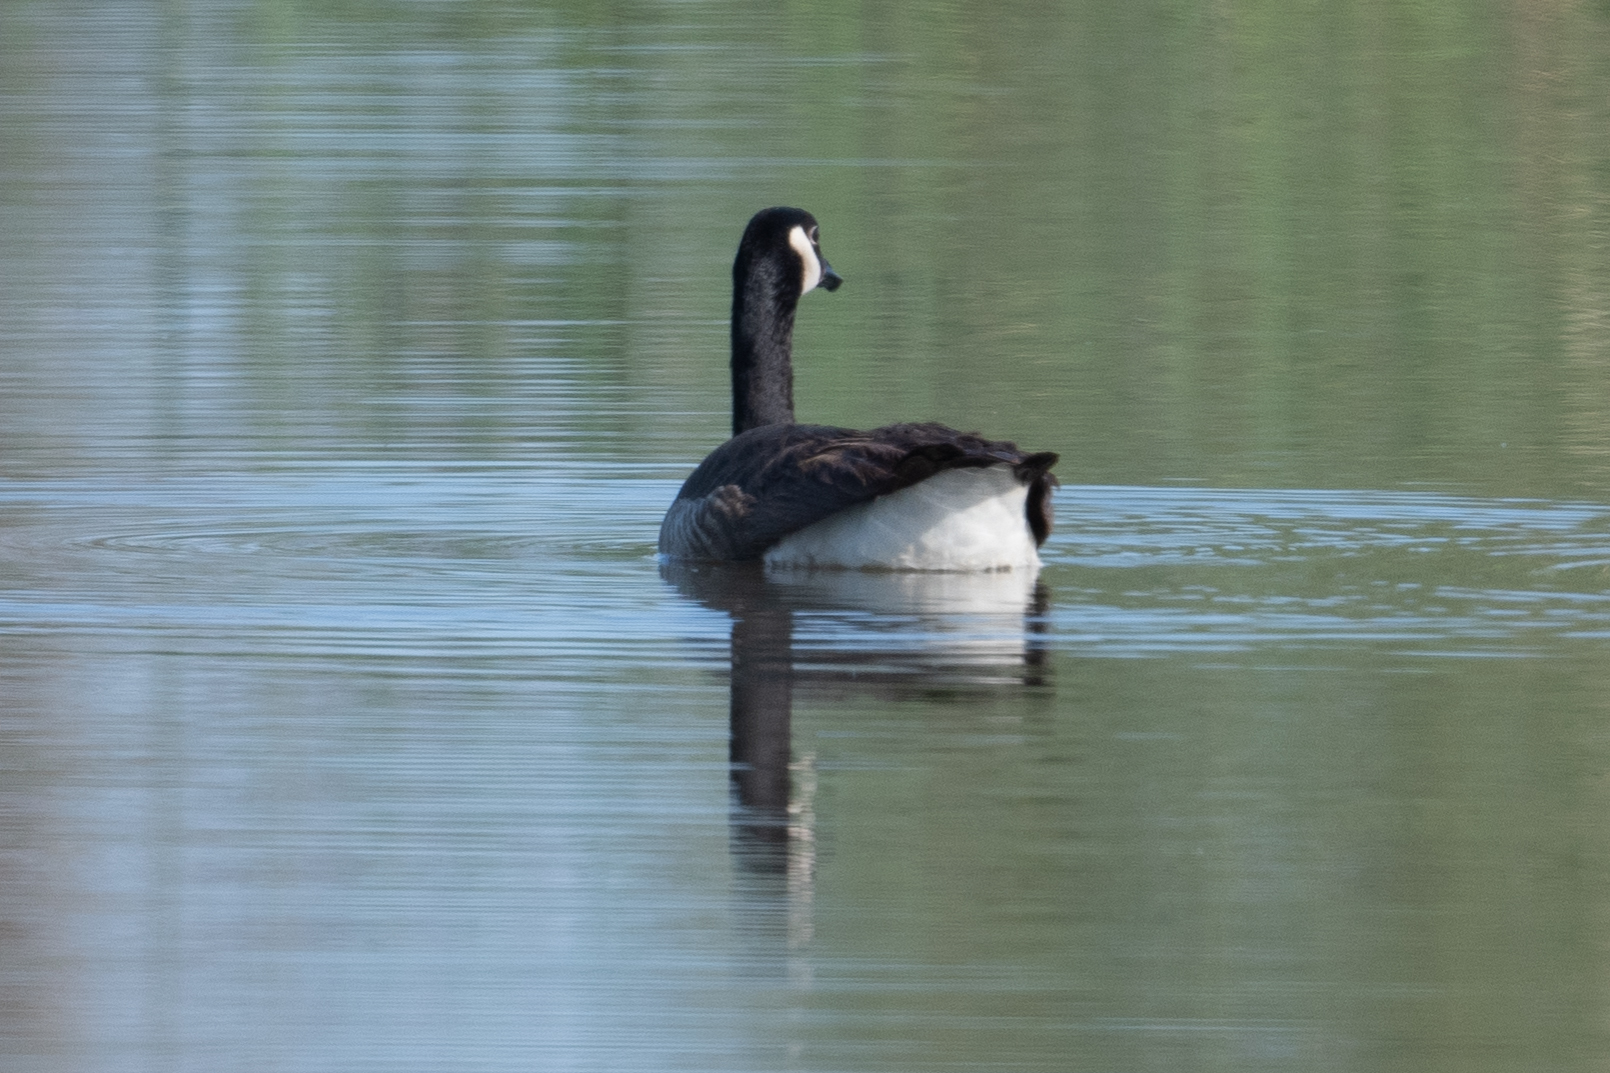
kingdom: Animalia
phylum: Chordata
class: Aves
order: Anseriformes
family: Anatidae
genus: Branta
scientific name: Branta canadensis
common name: Canada goose
